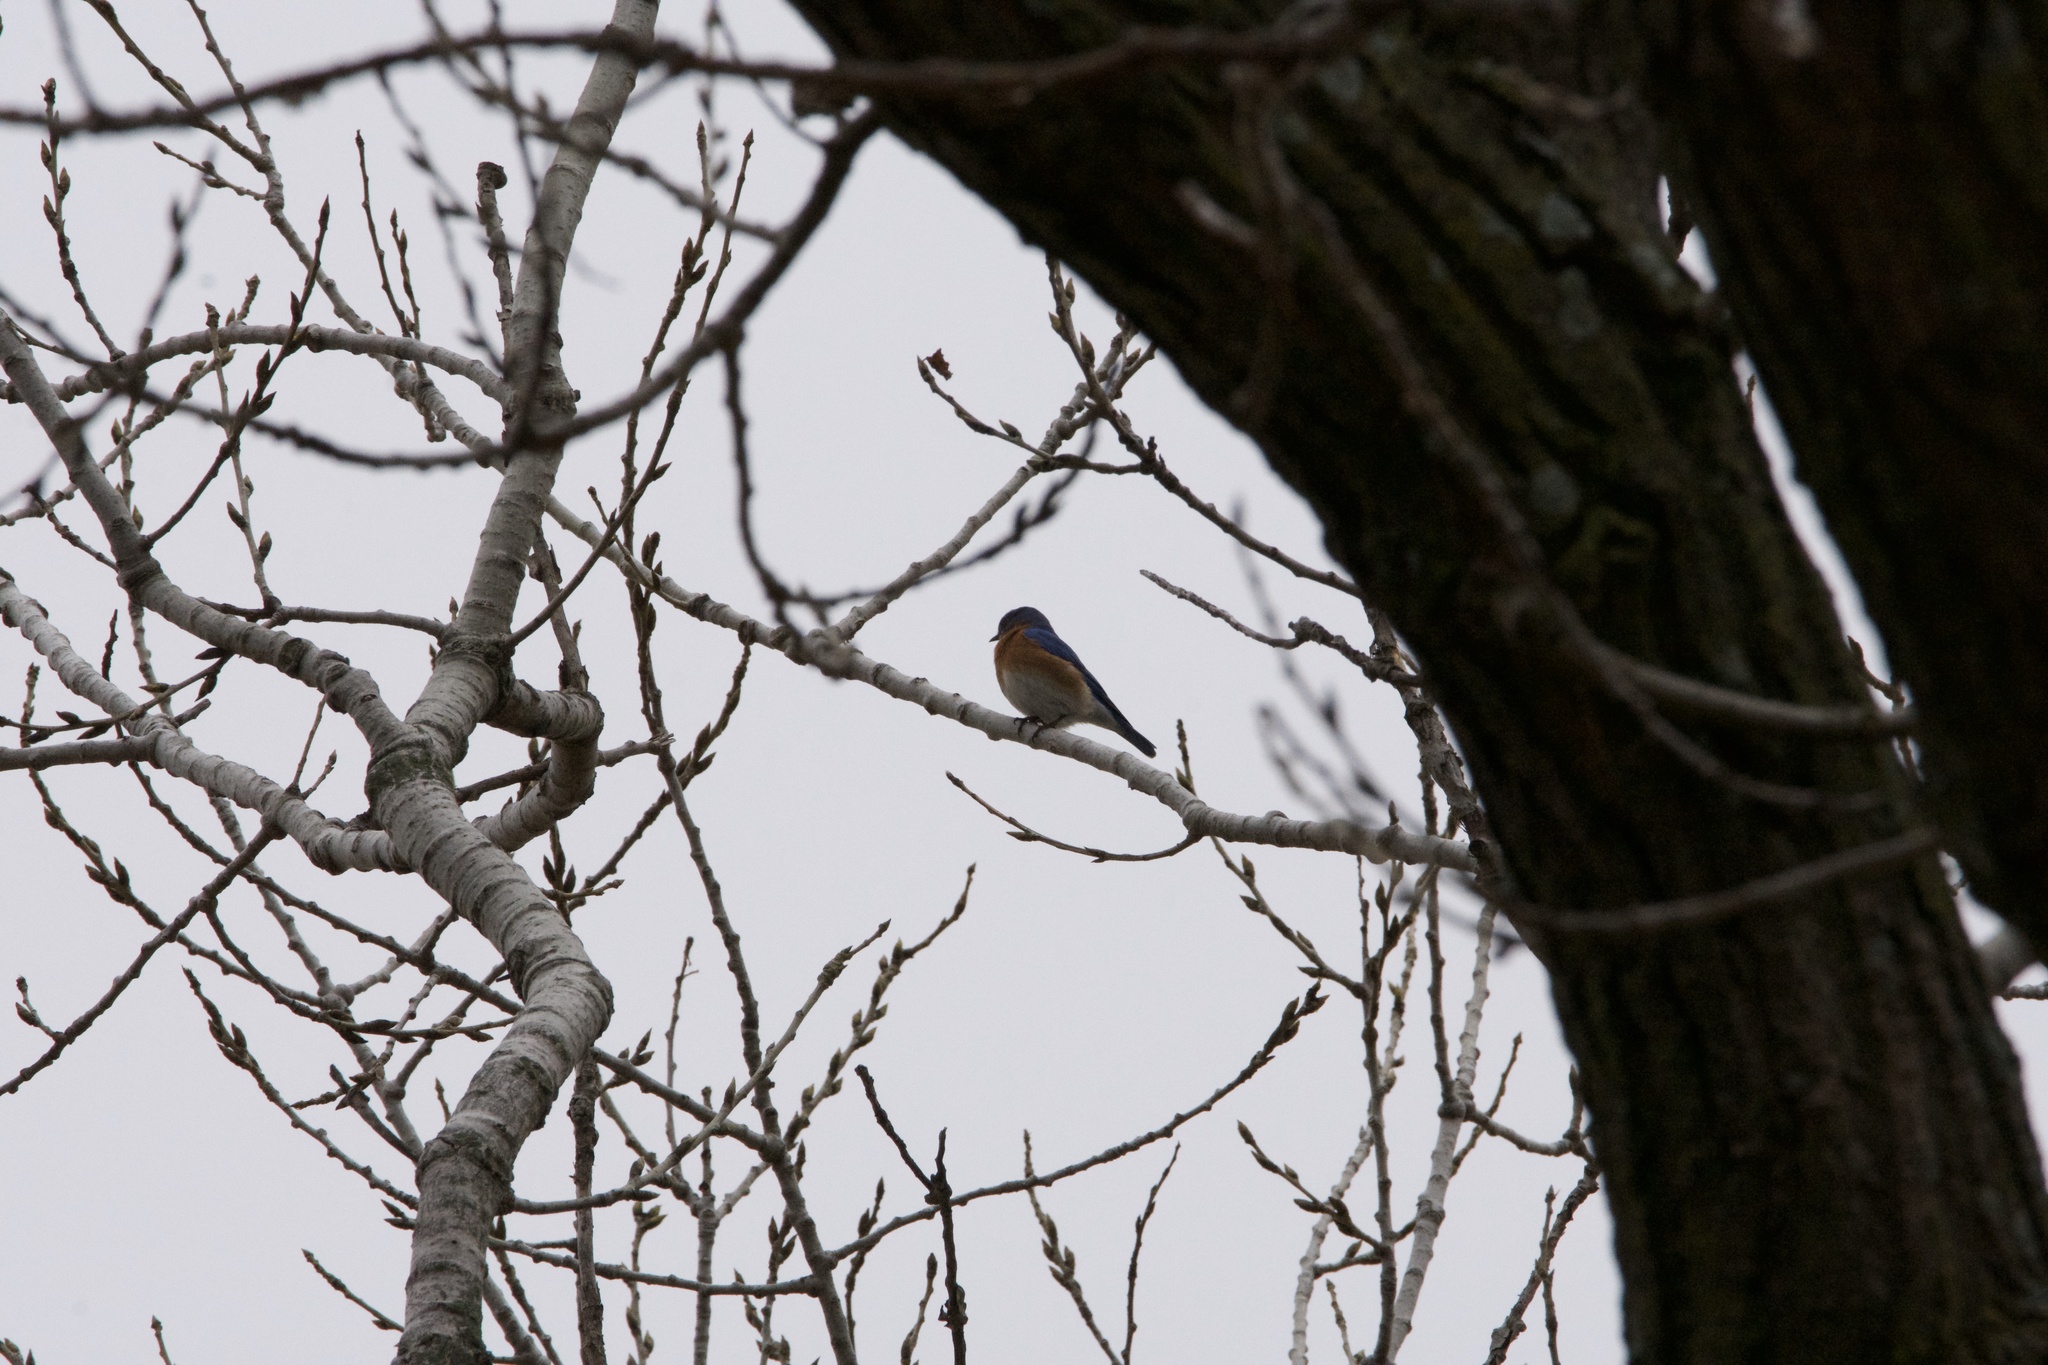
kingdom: Animalia
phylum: Chordata
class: Aves
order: Passeriformes
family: Turdidae
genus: Sialia
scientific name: Sialia sialis
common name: Eastern bluebird
